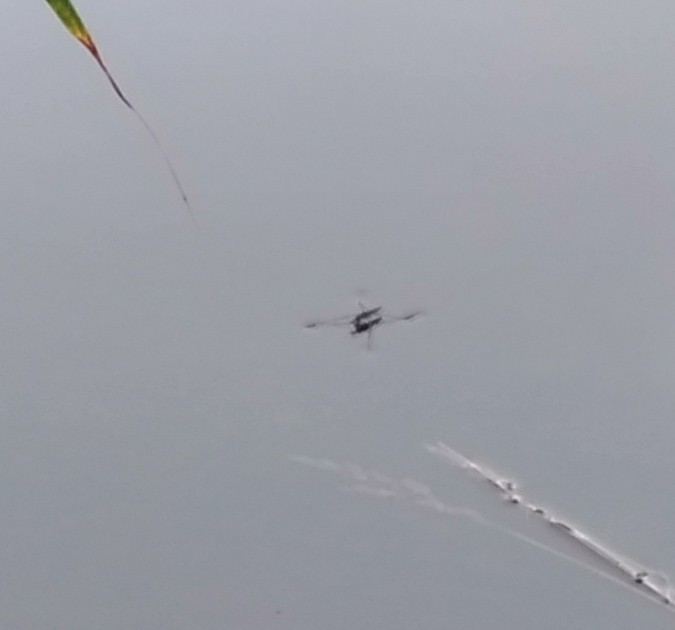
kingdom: Animalia
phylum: Arthropoda
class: Insecta
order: Hemiptera
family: Gerridae
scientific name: Gerridae
